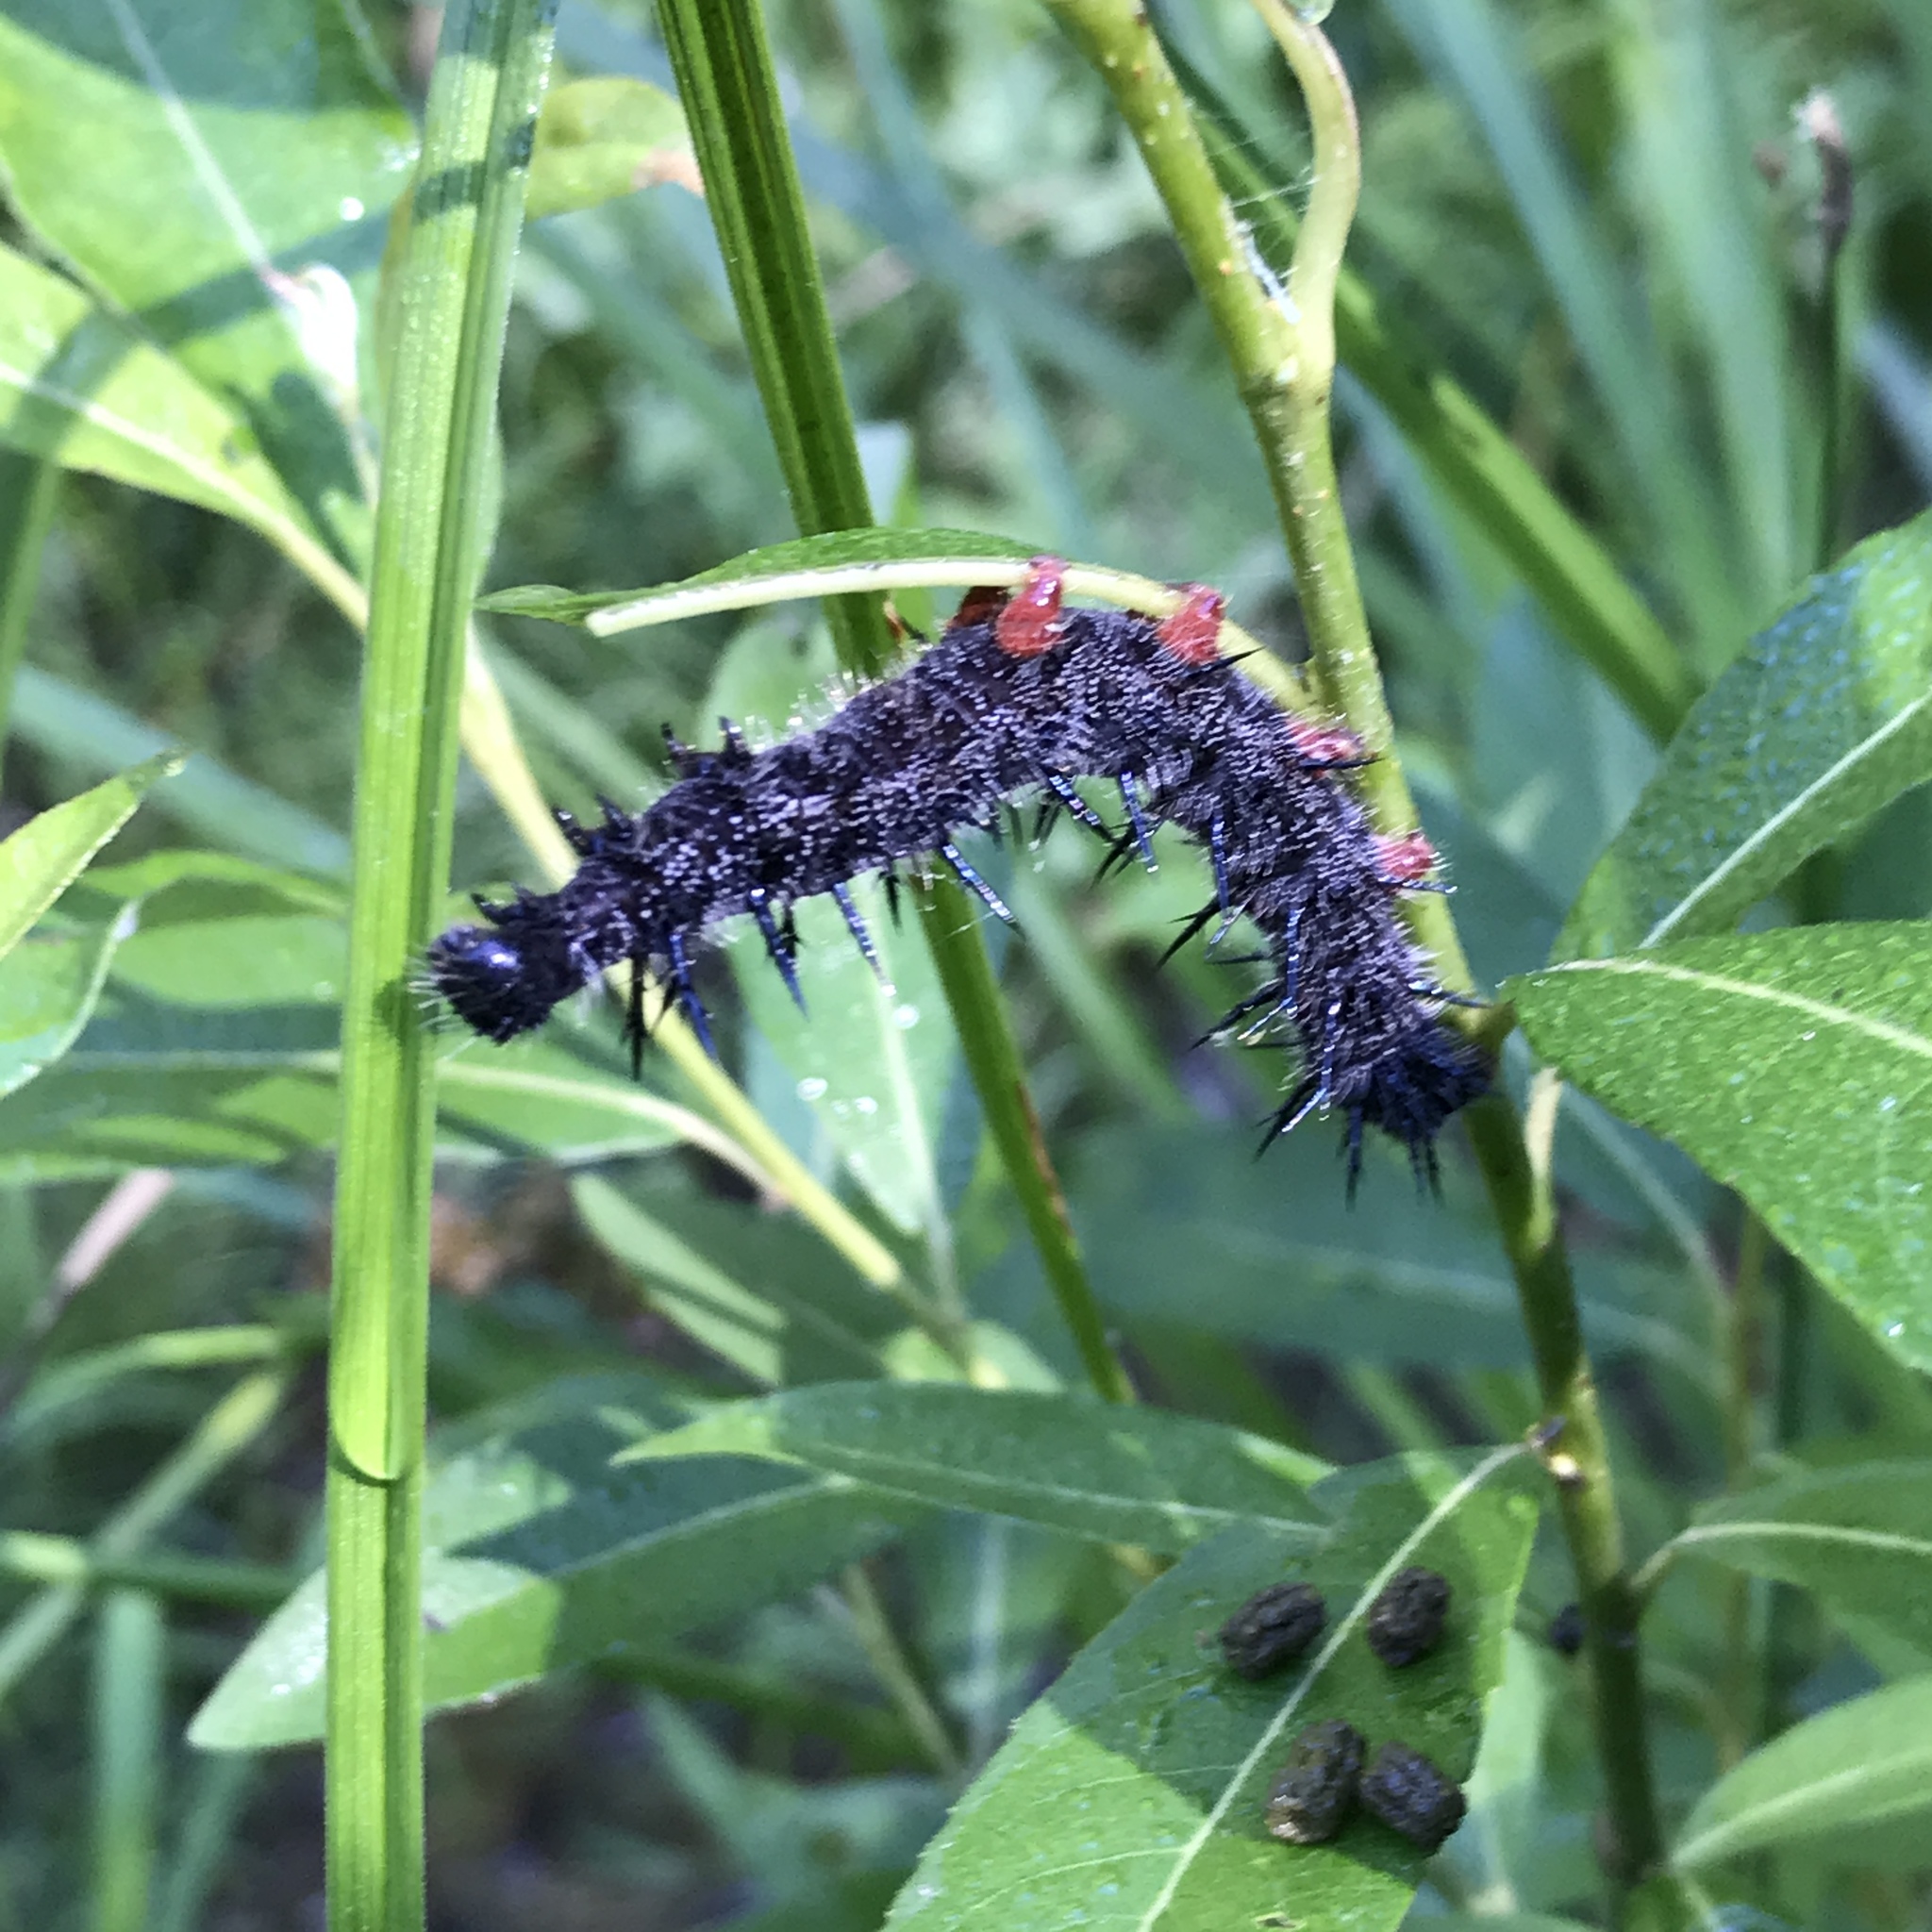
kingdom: Animalia
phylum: Arthropoda
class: Insecta
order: Lepidoptera
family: Nymphalidae
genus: Nymphalis
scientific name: Nymphalis antiopa
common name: Camberwell beauty
